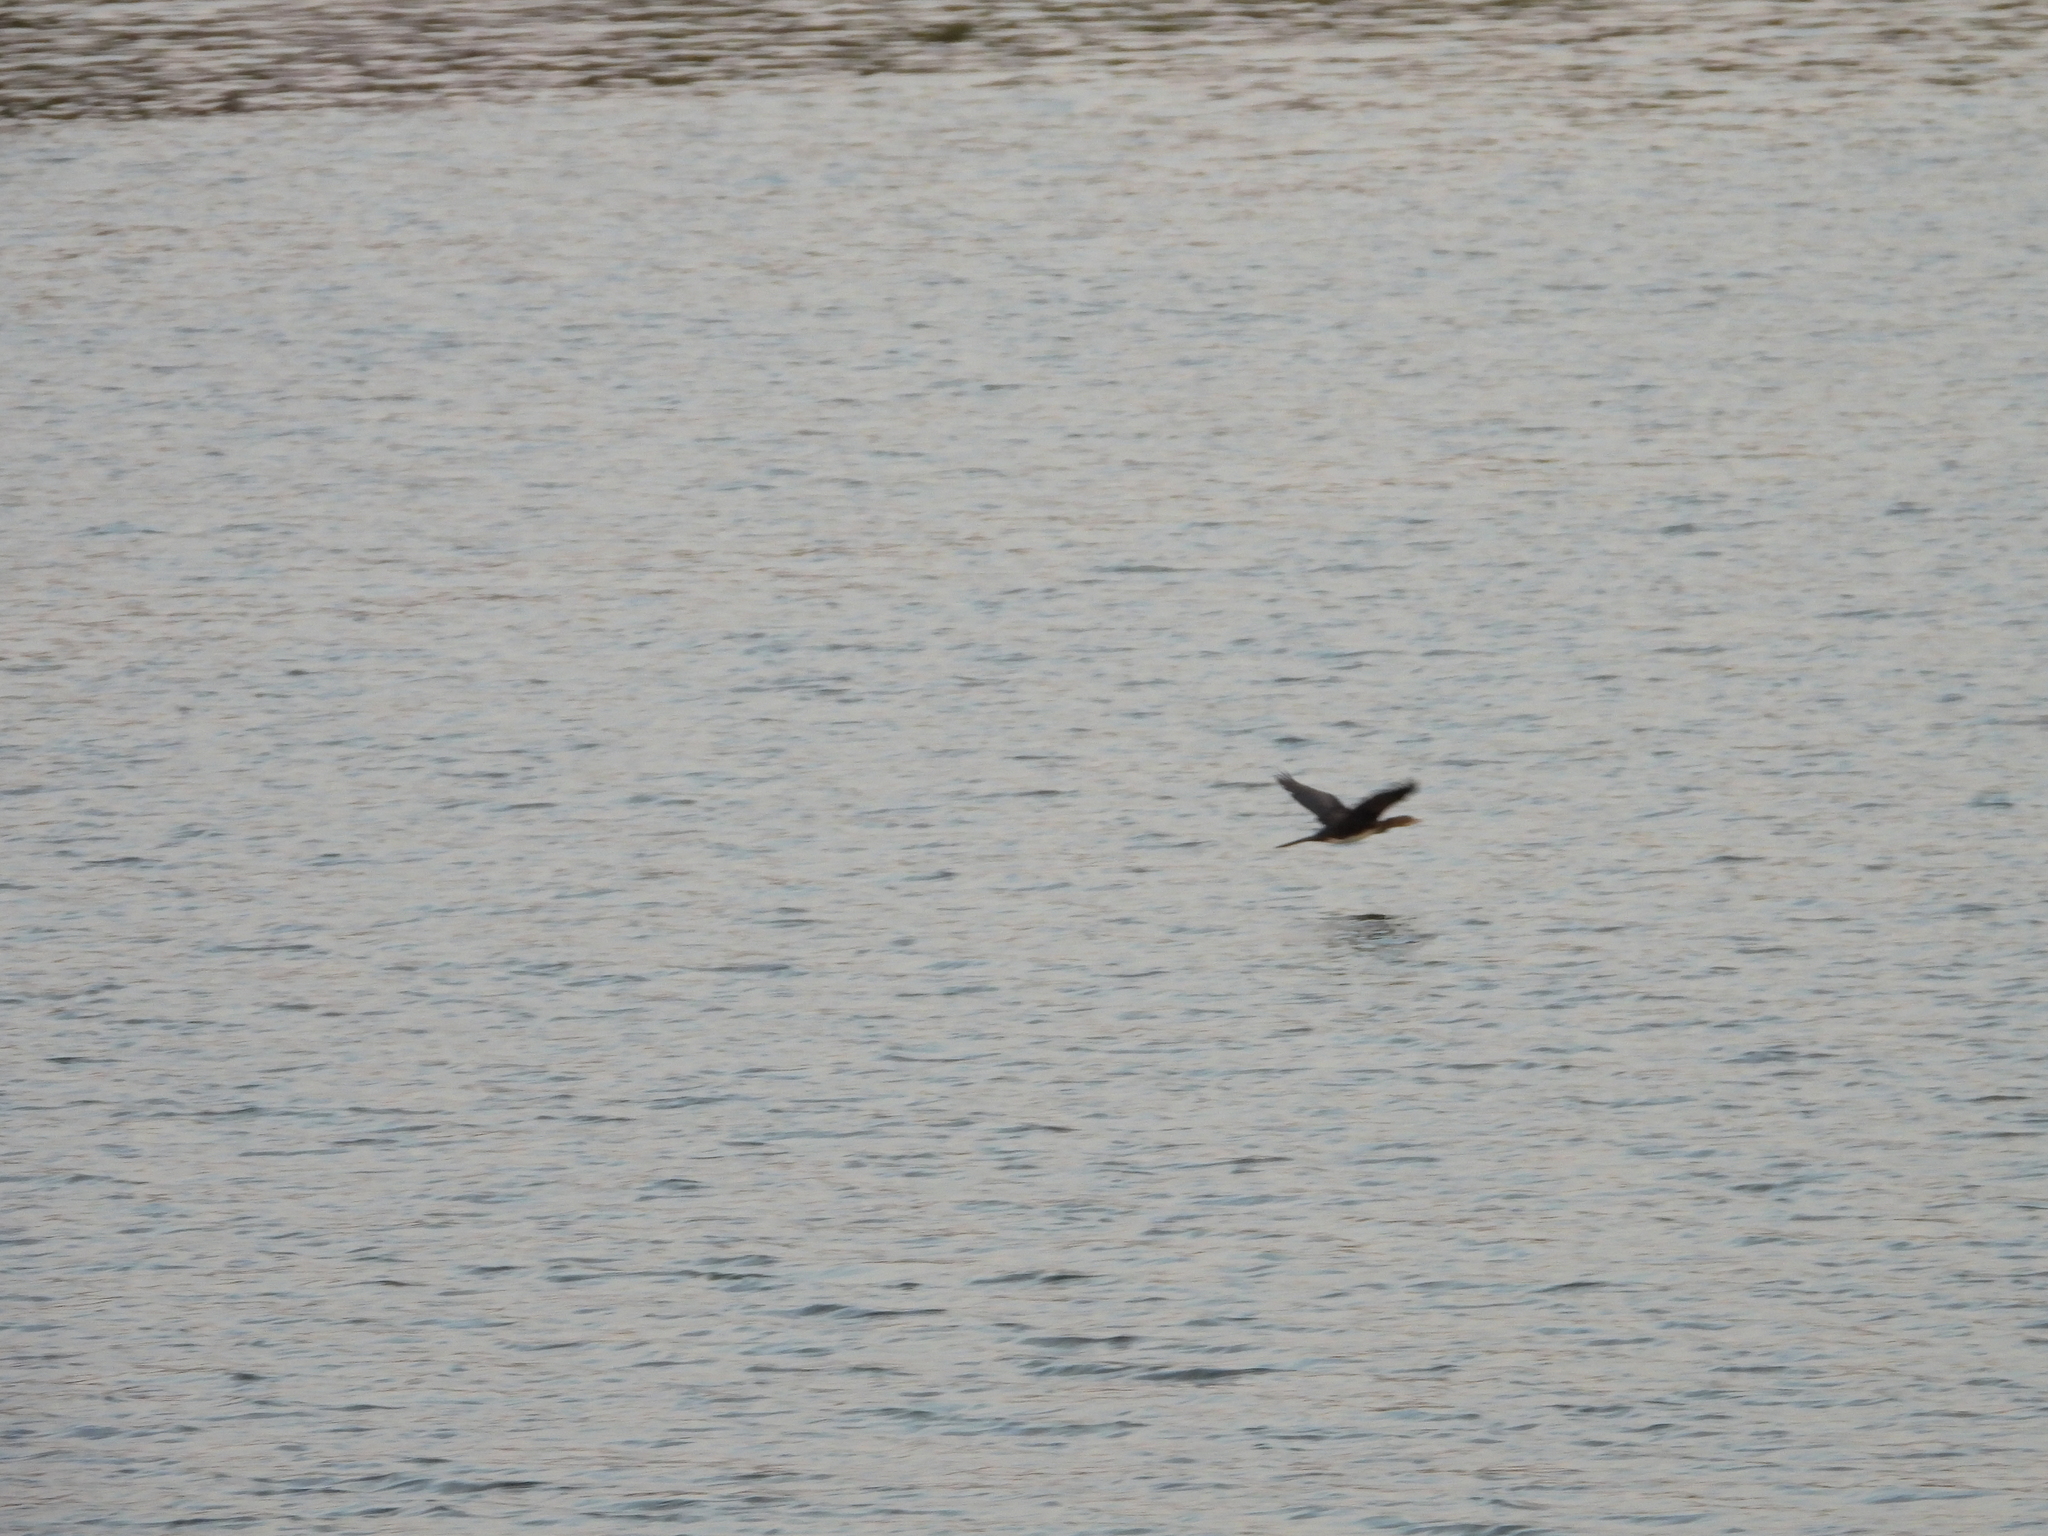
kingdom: Animalia
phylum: Chordata
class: Aves
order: Suliformes
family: Phalacrocoracidae
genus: Microcarbo
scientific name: Microcarbo africanus
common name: Long-tailed cormorant
